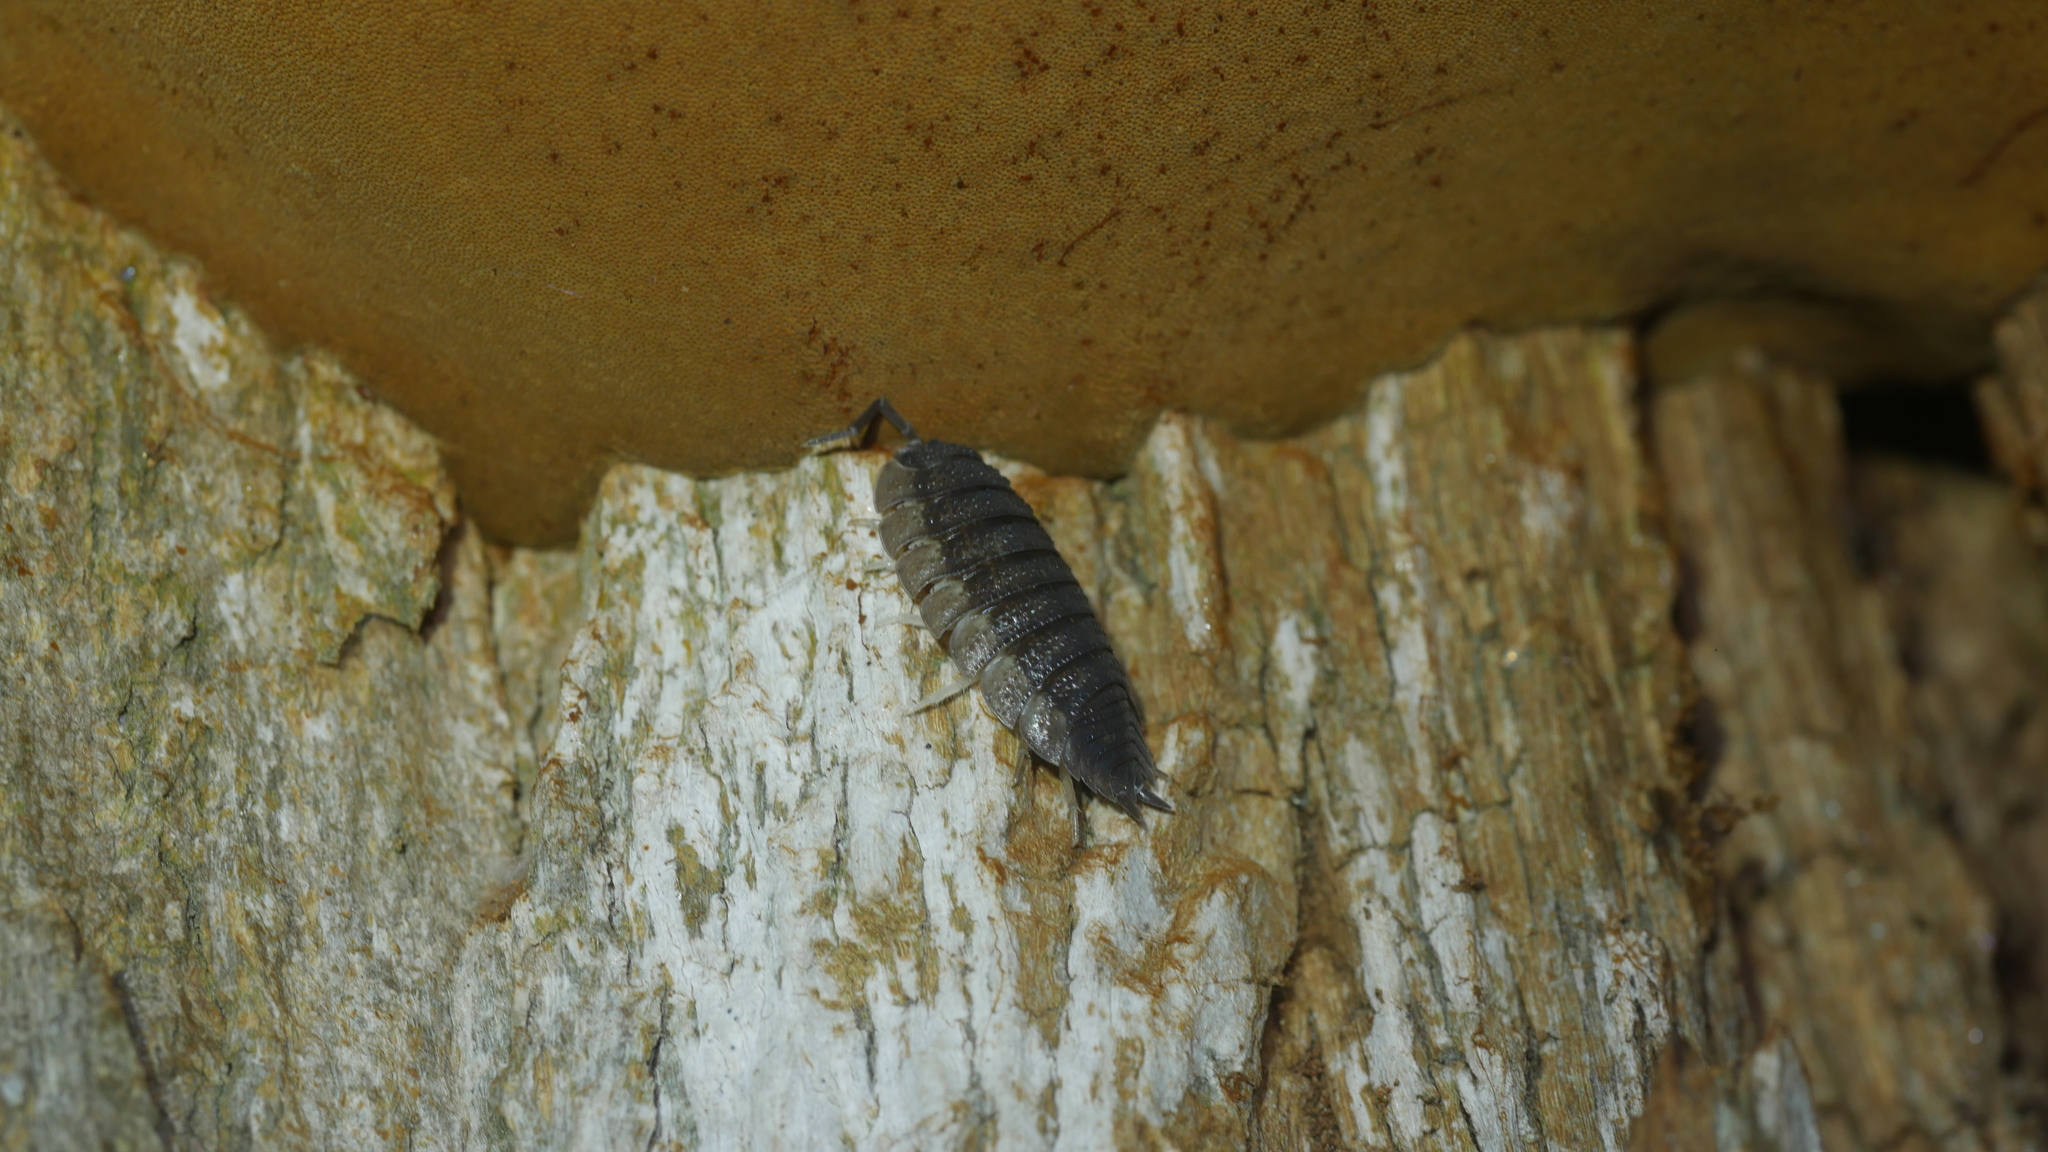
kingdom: Animalia
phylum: Arthropoda
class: Malacostraca
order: Isopoda
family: Porcellionidae
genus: Porcellio
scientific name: Porcellio scaber
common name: Common rough woodlouse
